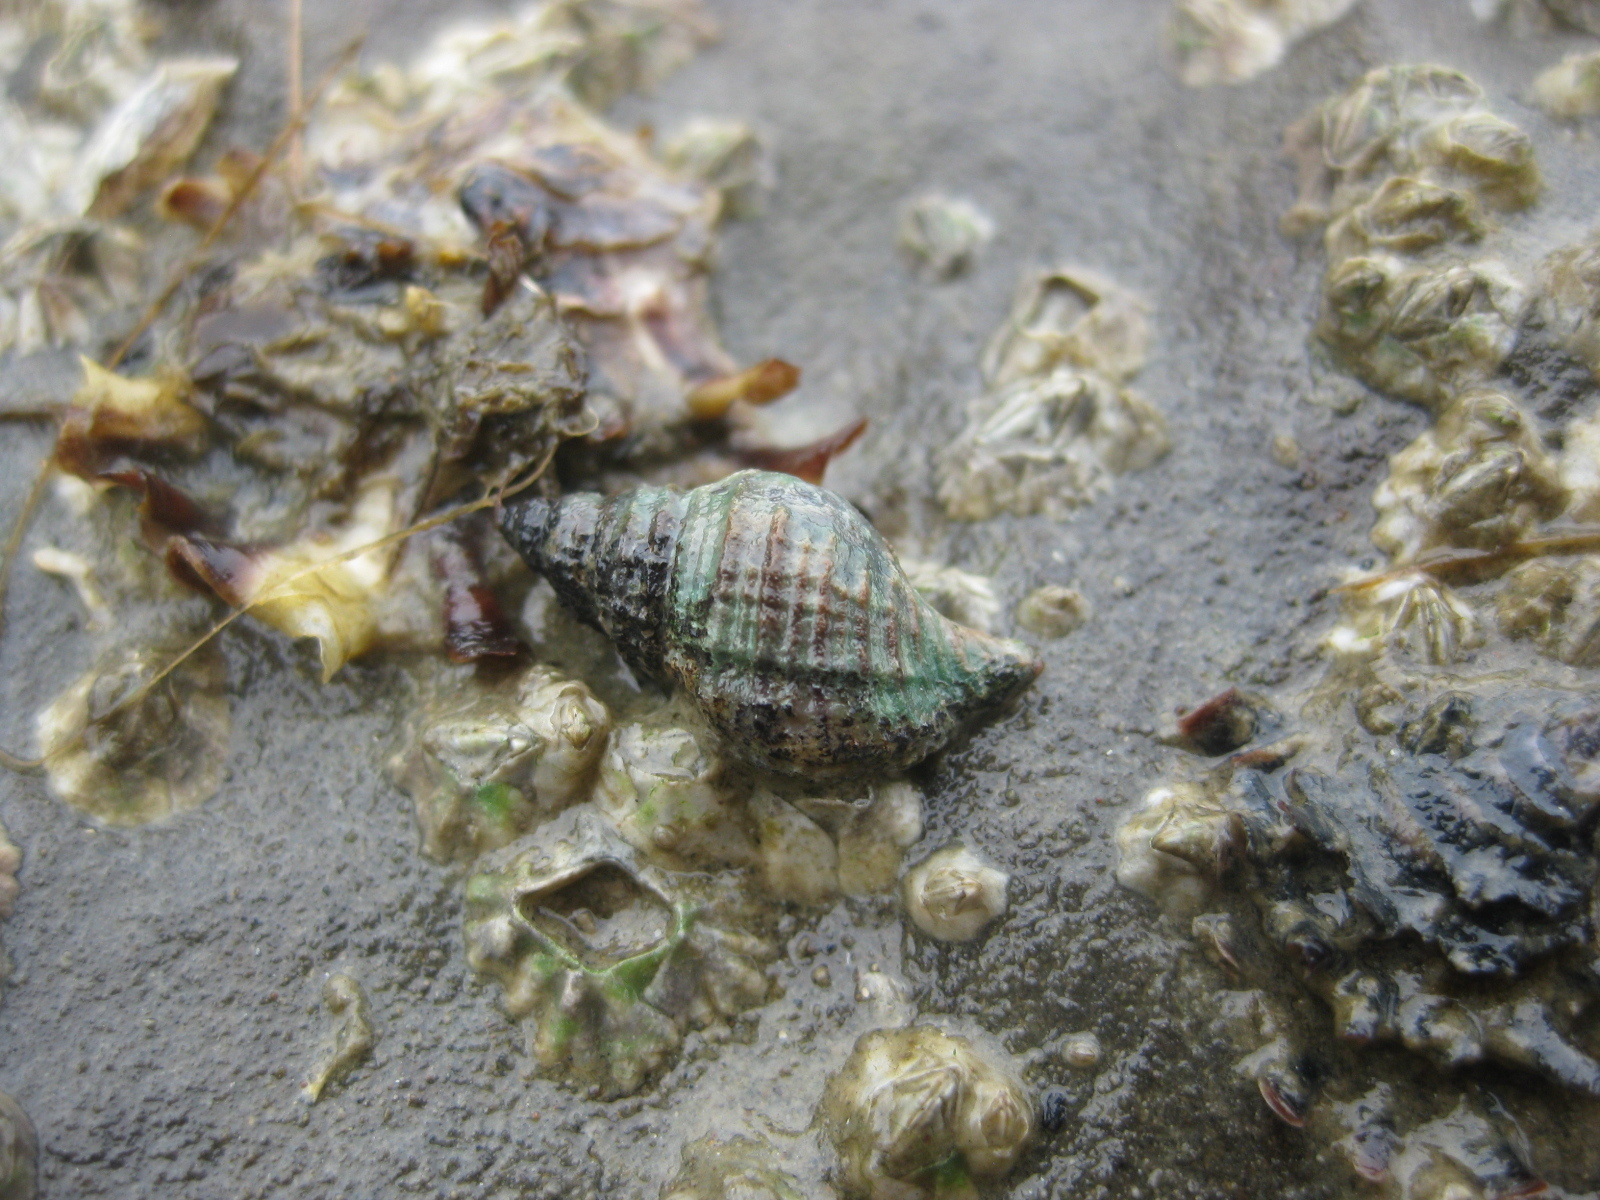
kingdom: Animalia
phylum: Mollusca
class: Gastropoda
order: Neogastropoda
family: Muricidae
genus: Xymene
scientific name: Xymene plebeius
